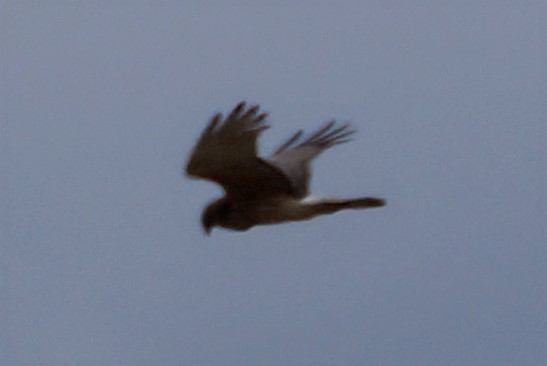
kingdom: Animalia
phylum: Chordata
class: Aves
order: Accipitriformes
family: Accipitridae
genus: Circus
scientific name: Circus approximans
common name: Swamp harrier
